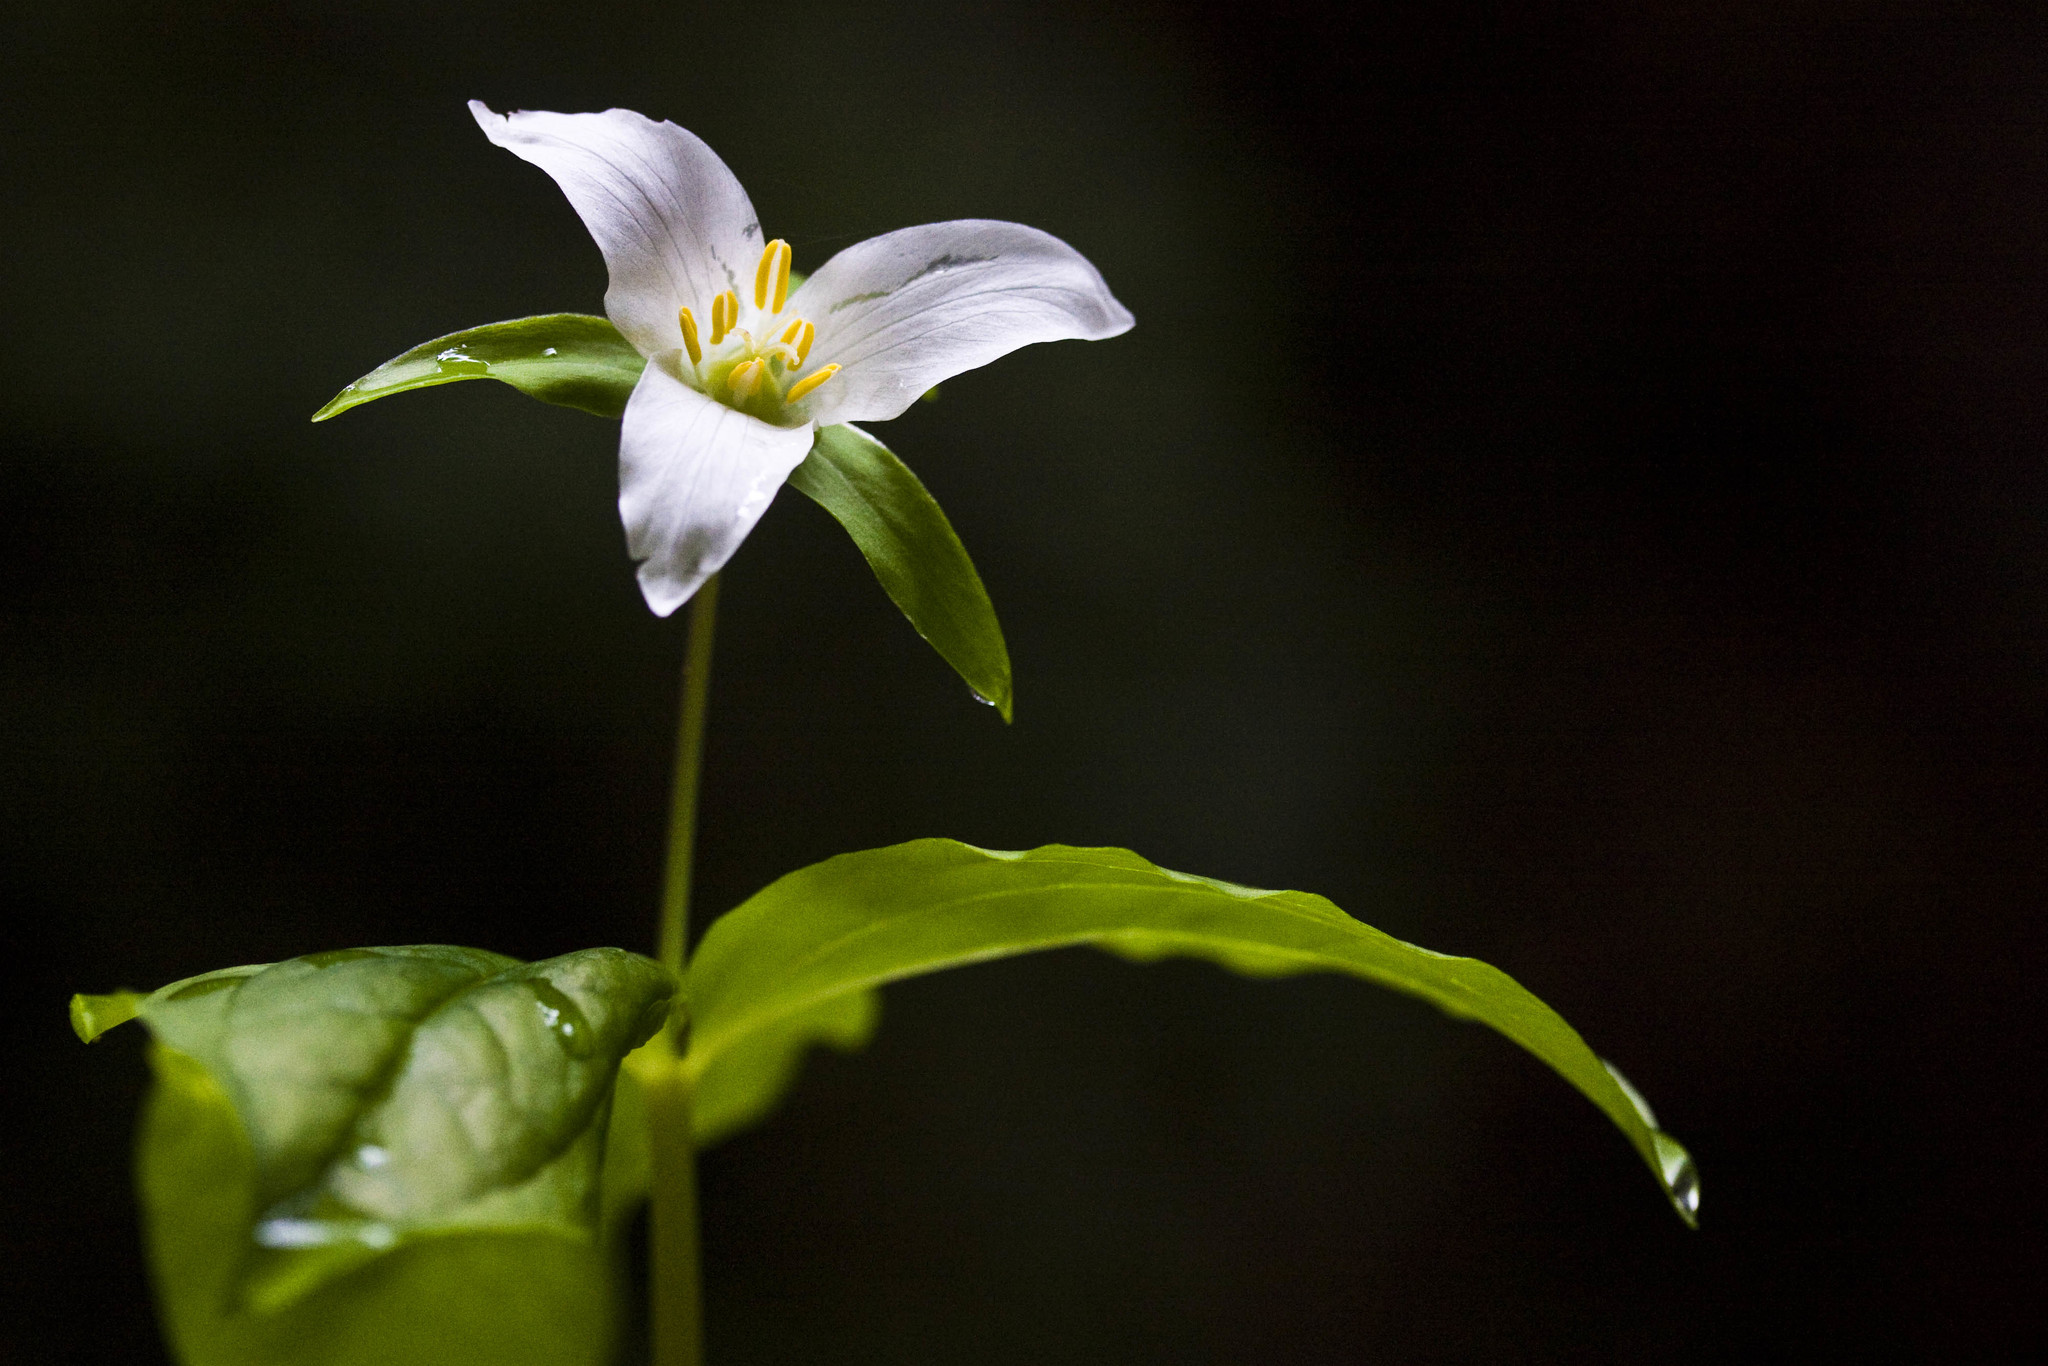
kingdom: Plantae
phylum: Tracheophyta
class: Liliopsida
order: Liliales
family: Melanthiaceae
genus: Trillium
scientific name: Trillium ovatum
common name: Pacific trillium
